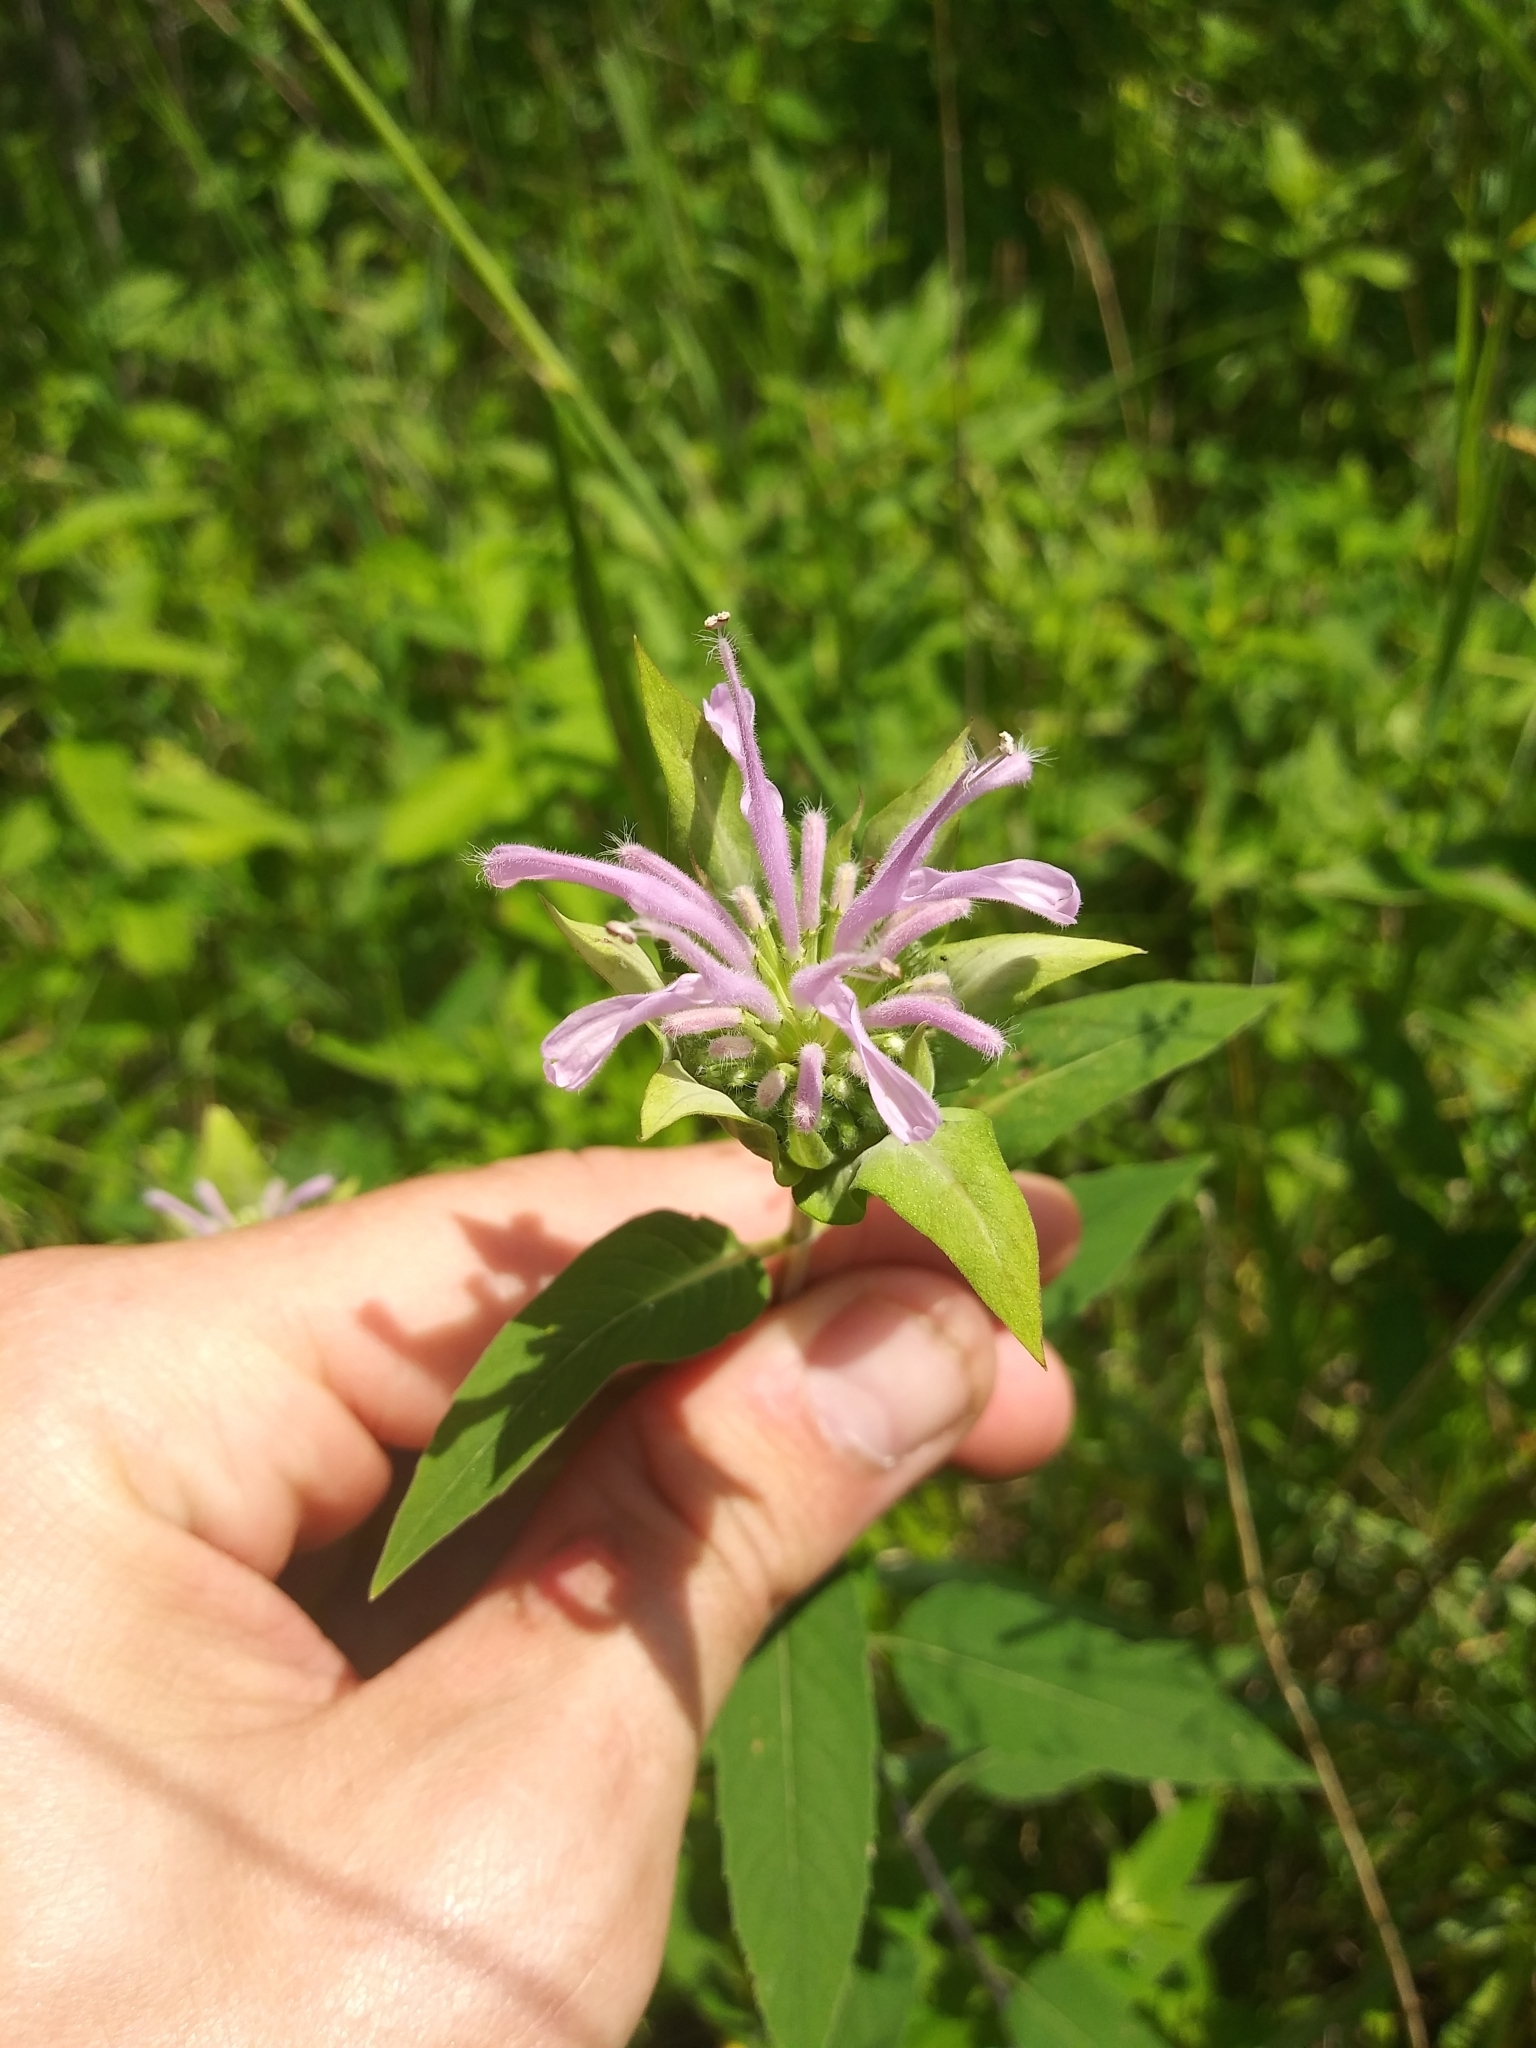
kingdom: Plantae
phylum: Tracheophyta
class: Magnoliopsida
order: Lamiales
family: Lamiaceae
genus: Monarda
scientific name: Monarda fistulosa
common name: Purple beebalm
